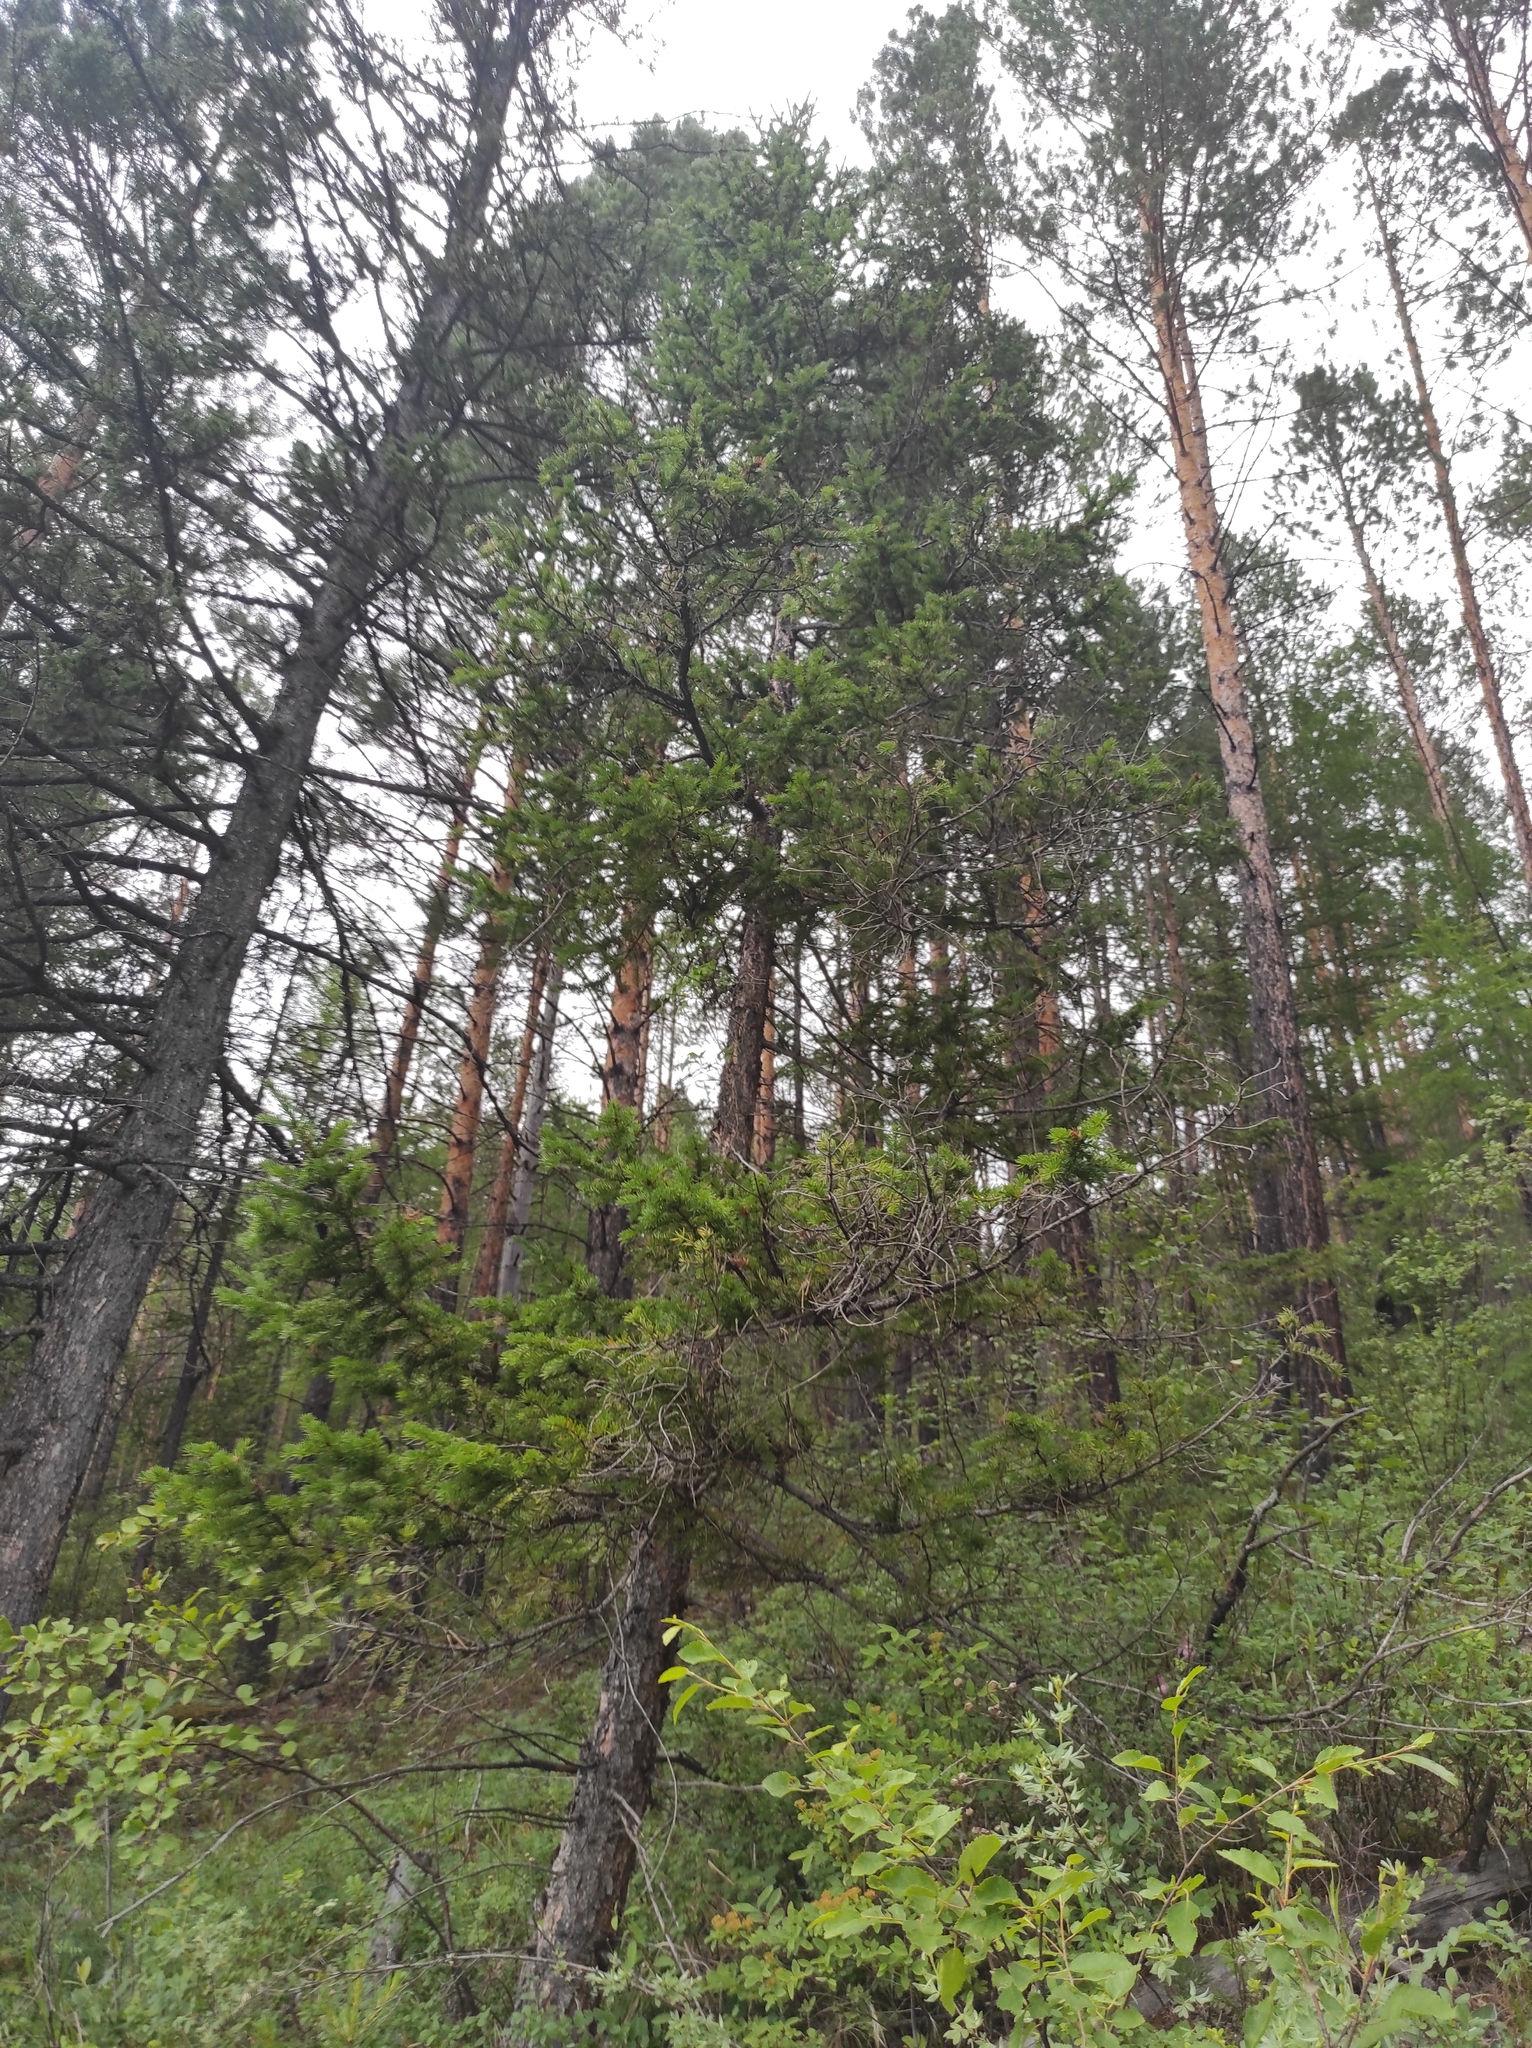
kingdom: Plantae
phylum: Tracheophyta
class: Pinopsida
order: Pinales
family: Pinaceae
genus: Pinus
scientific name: Pinus sylvestris
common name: Scots pine
